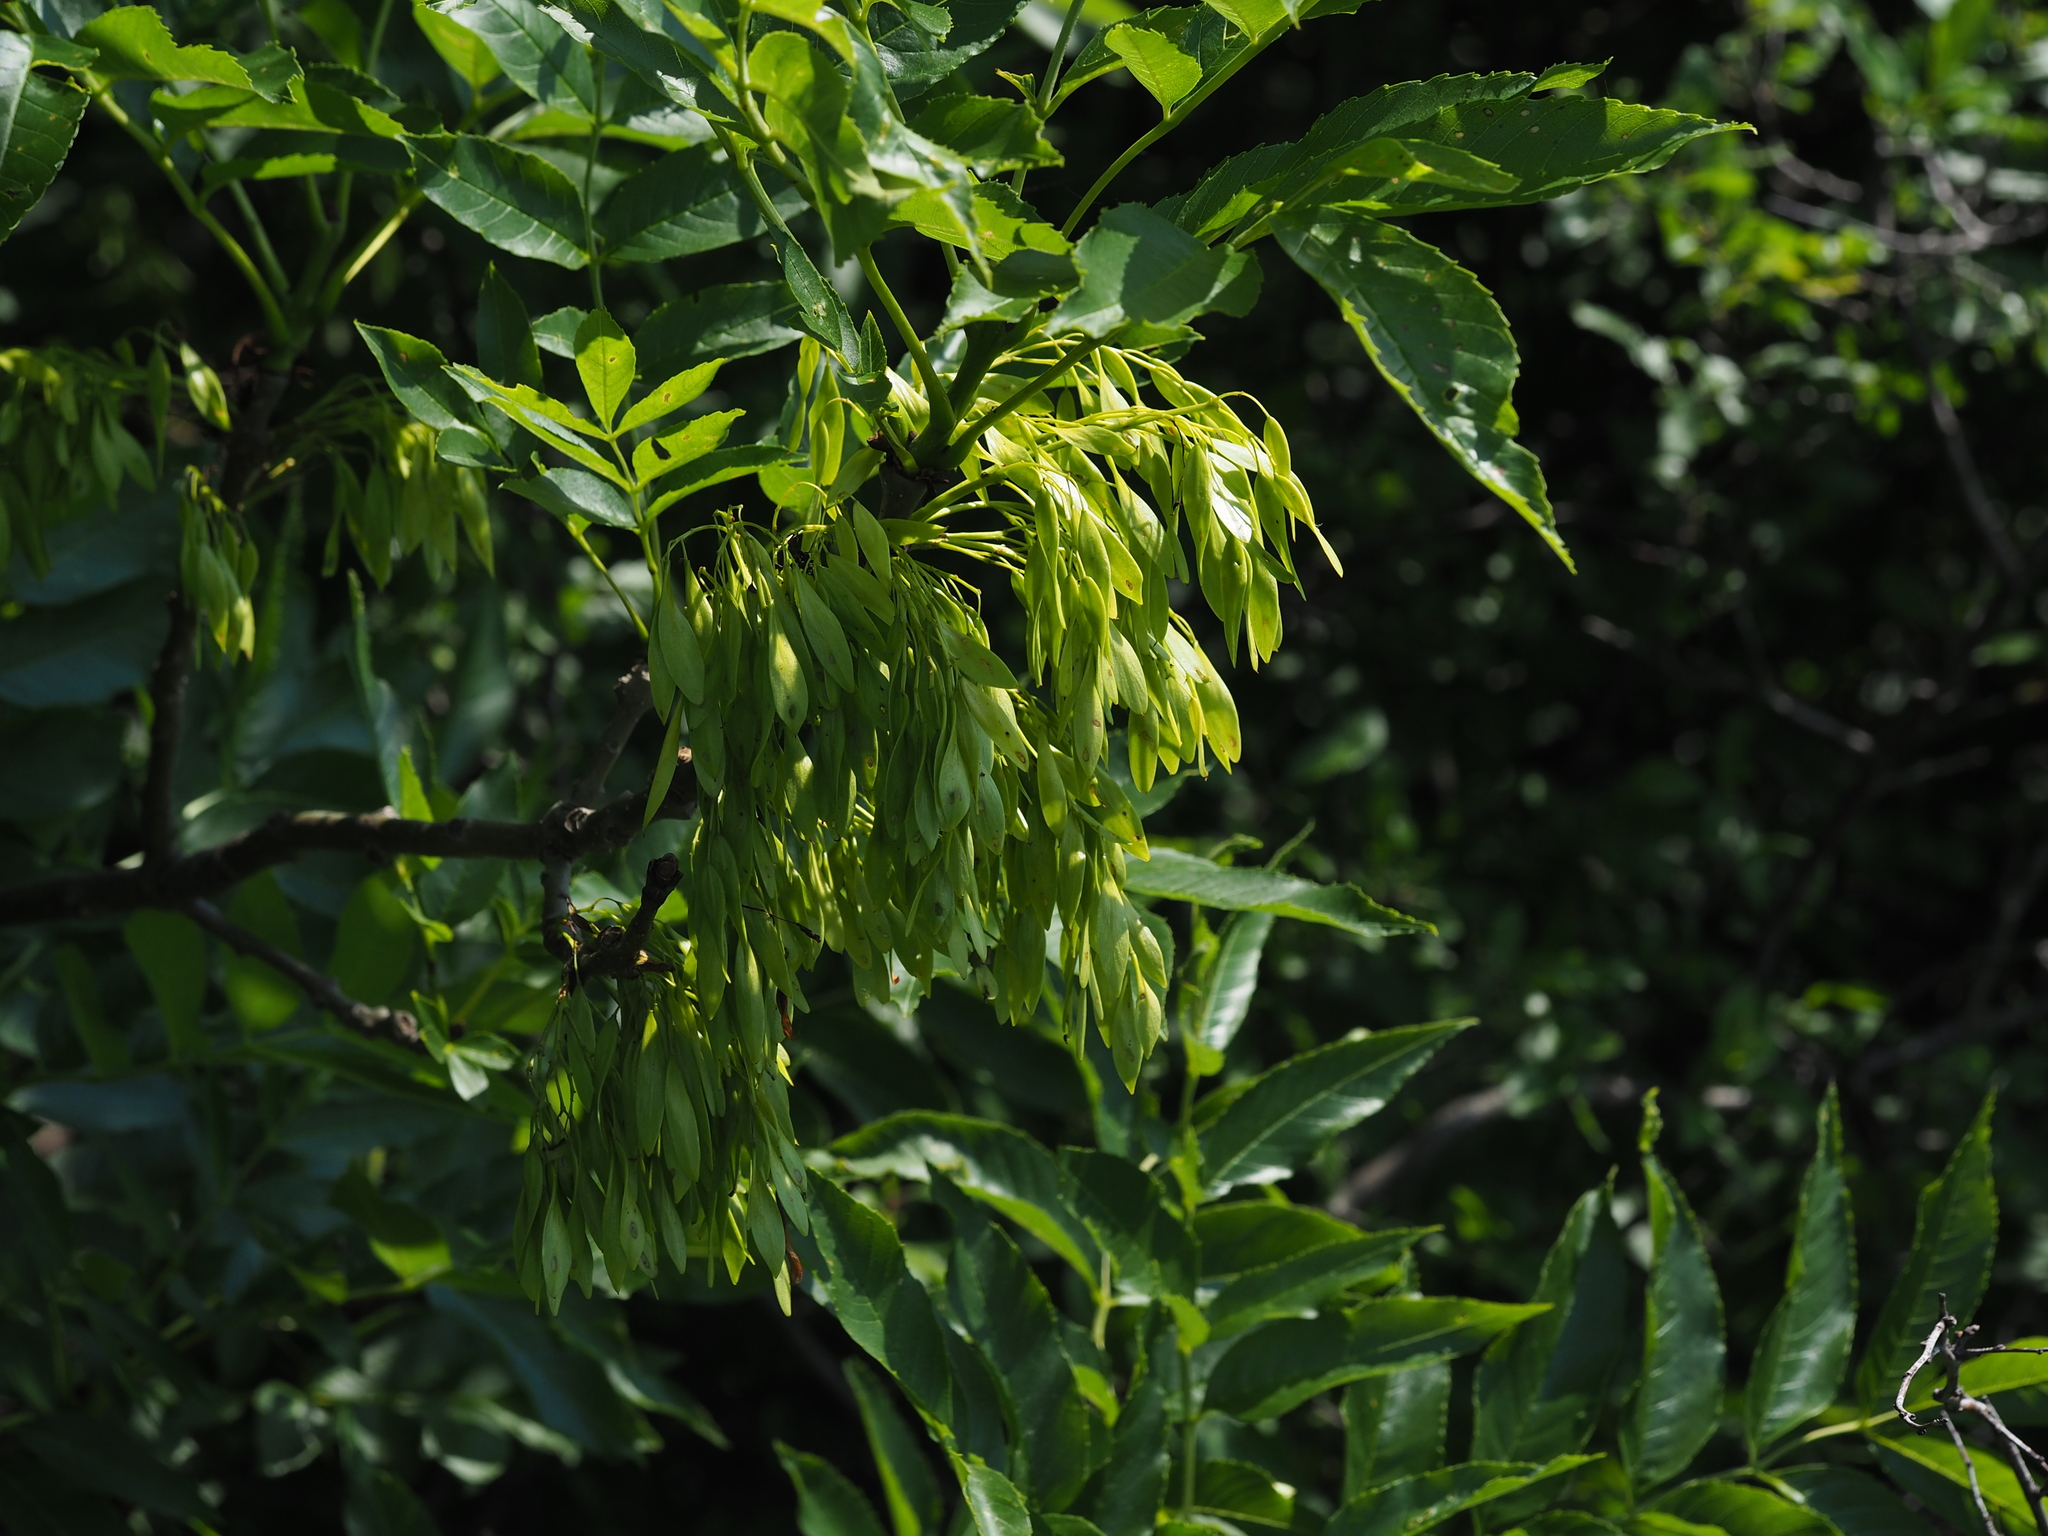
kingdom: Plantae
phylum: Tracheophyta
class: Magnoliopsida
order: Lamiales
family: Oleaceae
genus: Fraxinus
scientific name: Fraxinus excelsior
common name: European ash
